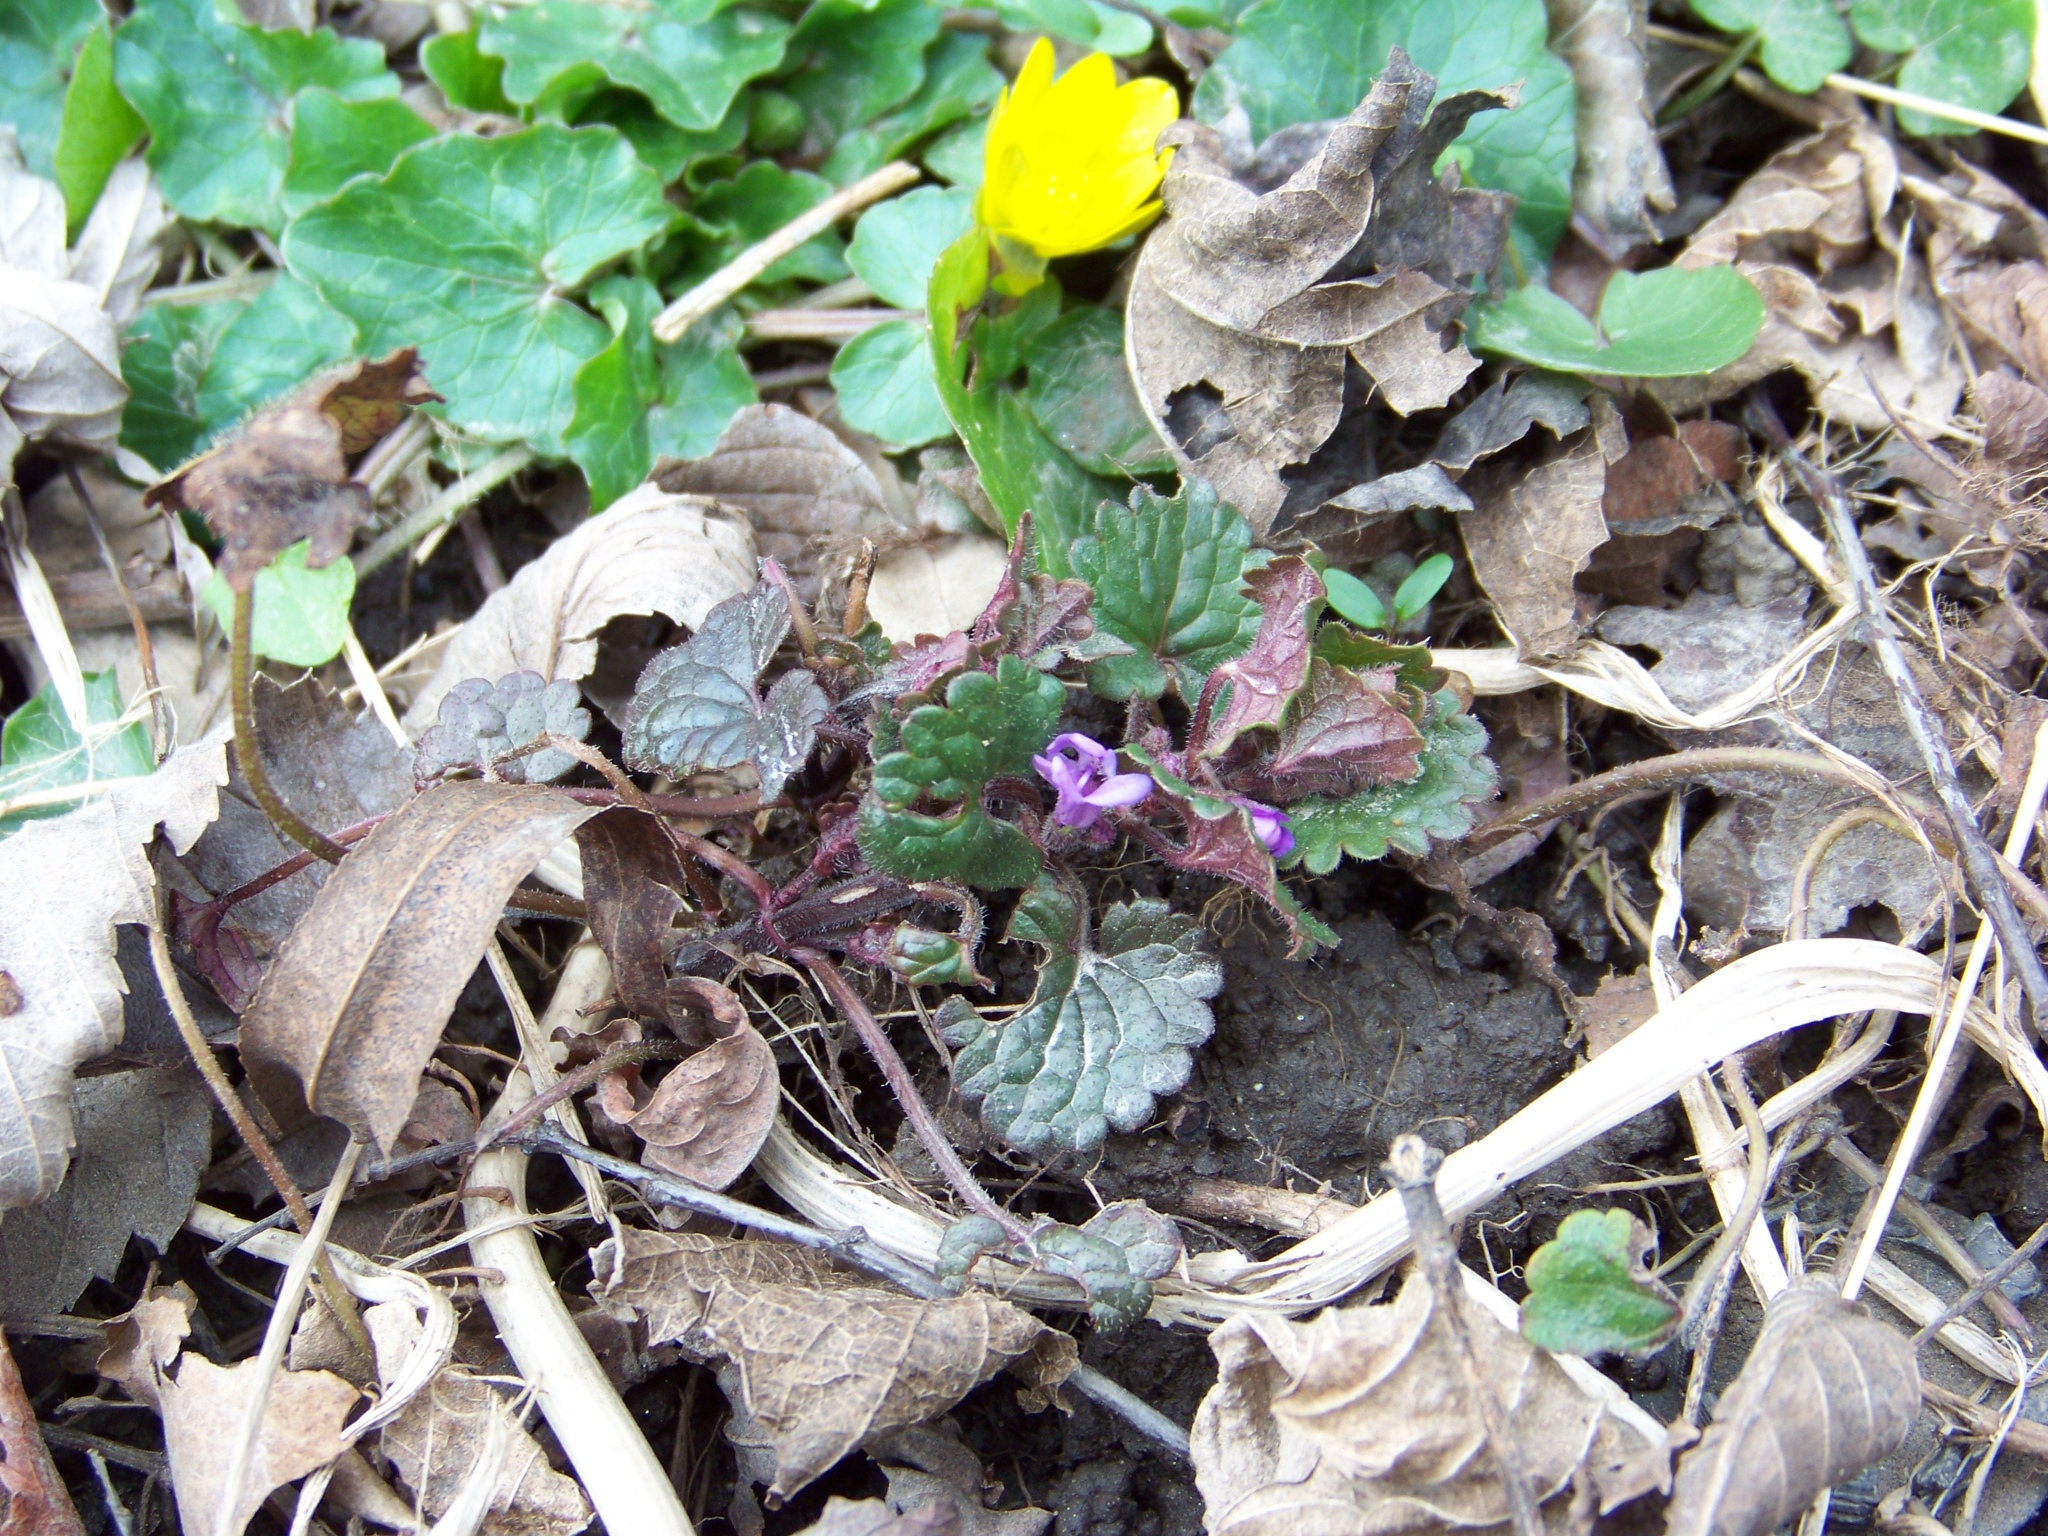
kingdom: Plantae
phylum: Tracheophyta
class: Magnoliopsida
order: Lamiales
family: Lamiaceae
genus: Glechoma
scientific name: Glechoma hederacea
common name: Ground ivy
